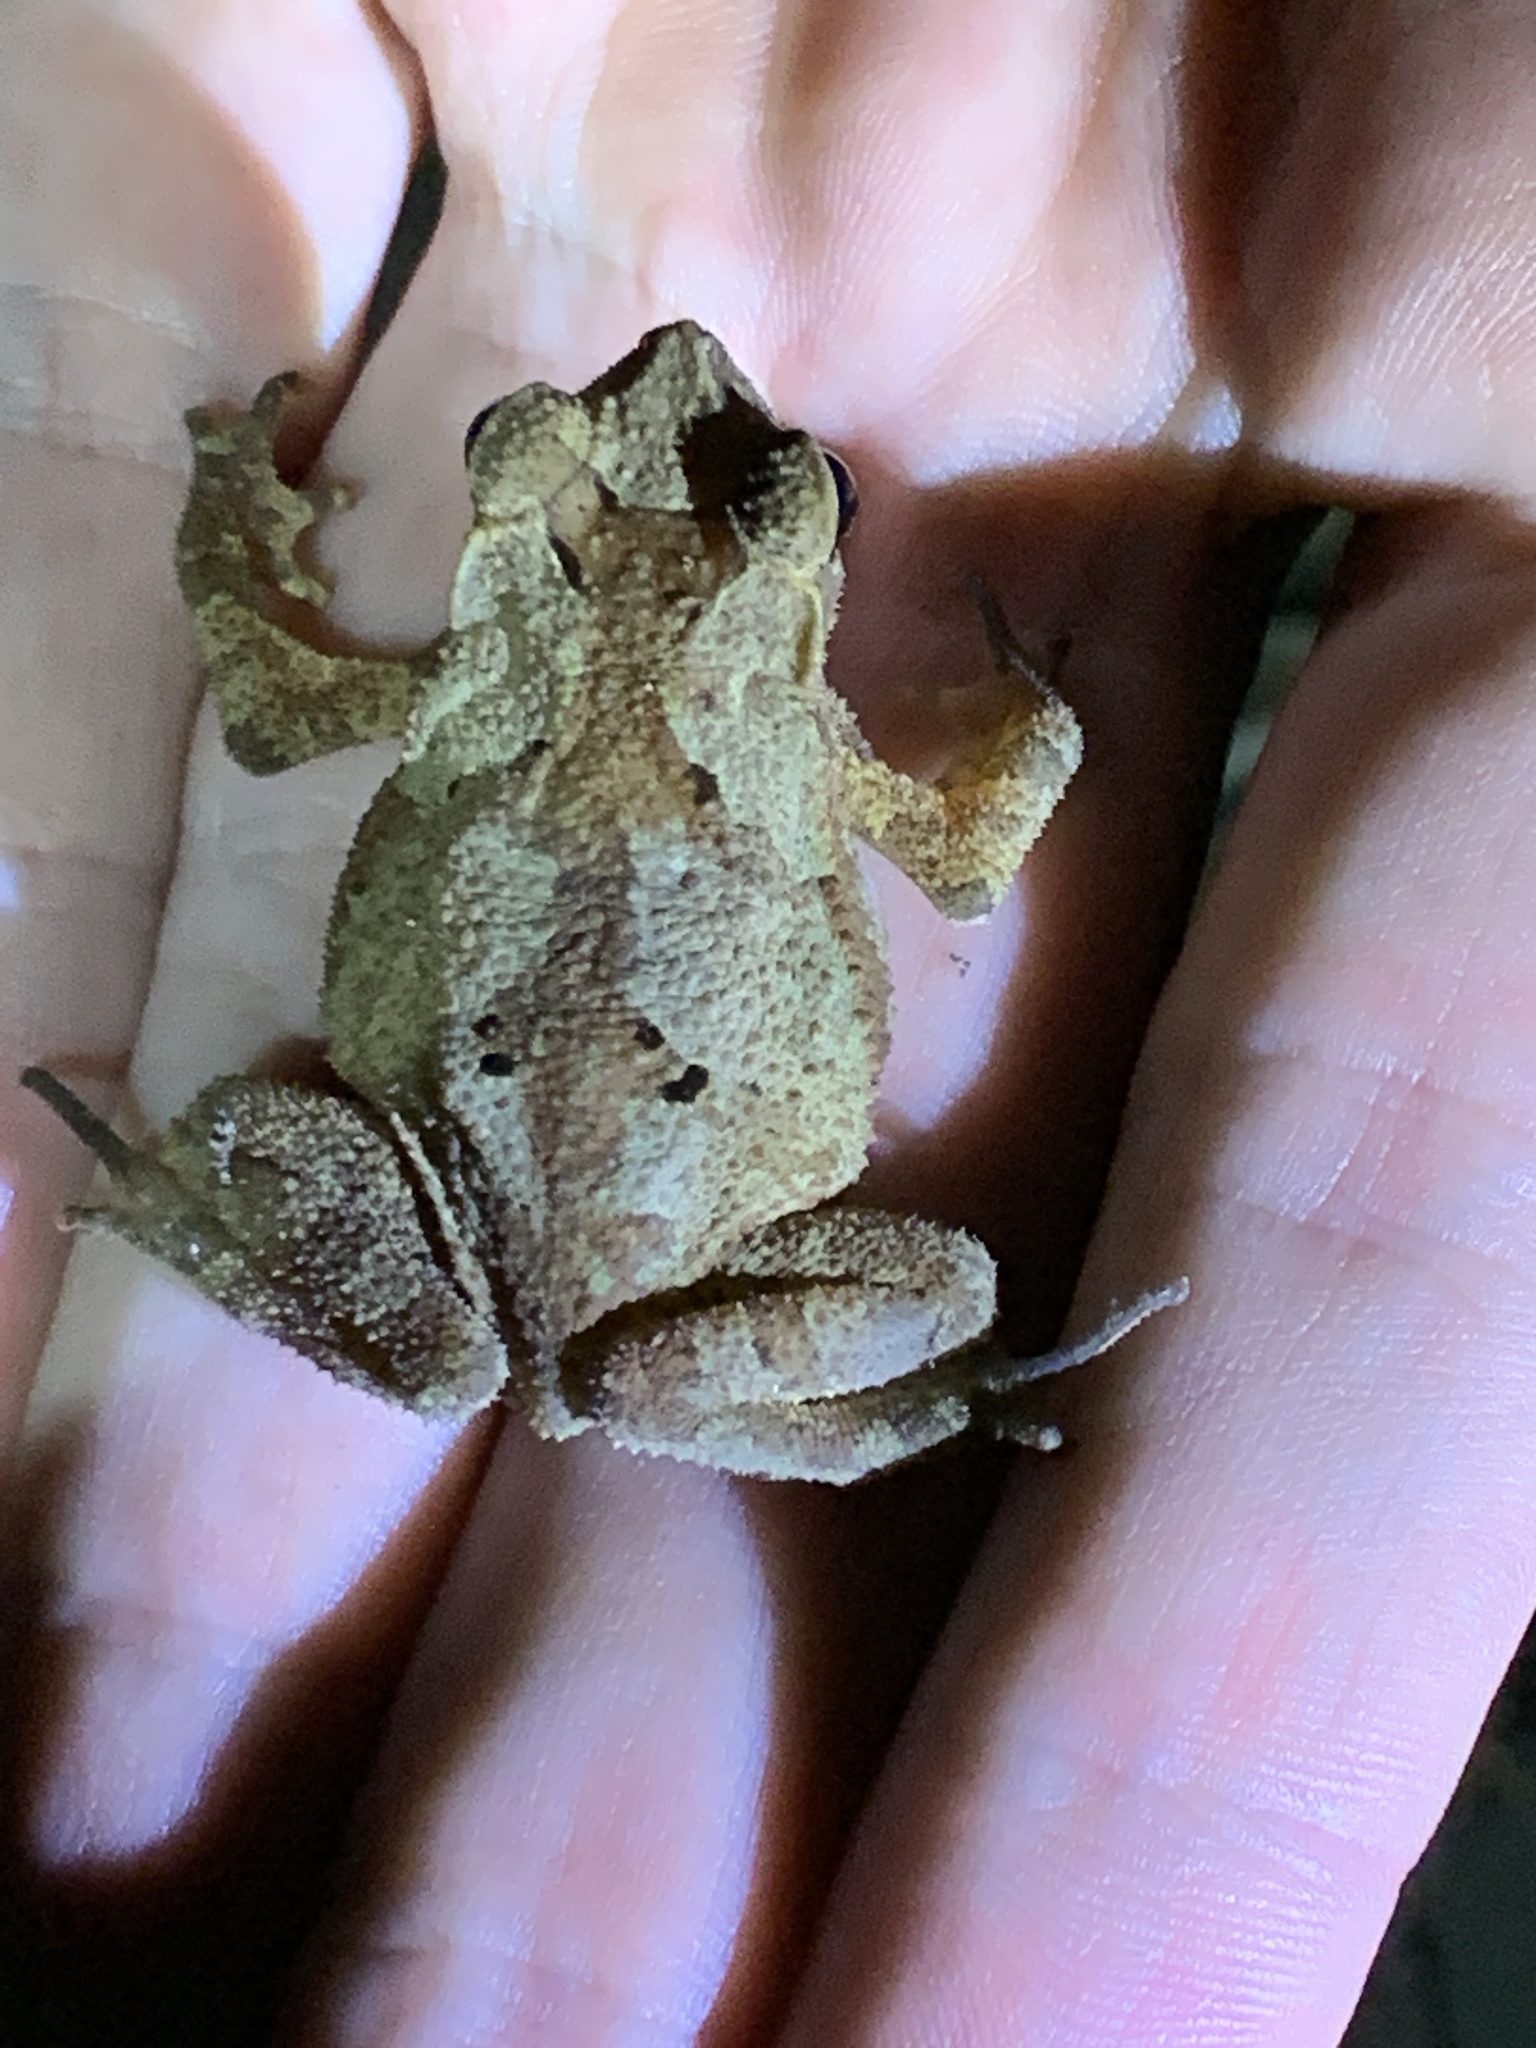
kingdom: Animalia
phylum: Chordata
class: Amphibia
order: Anura
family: Bufonidae
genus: Rhinella
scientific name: Rhinella alata
